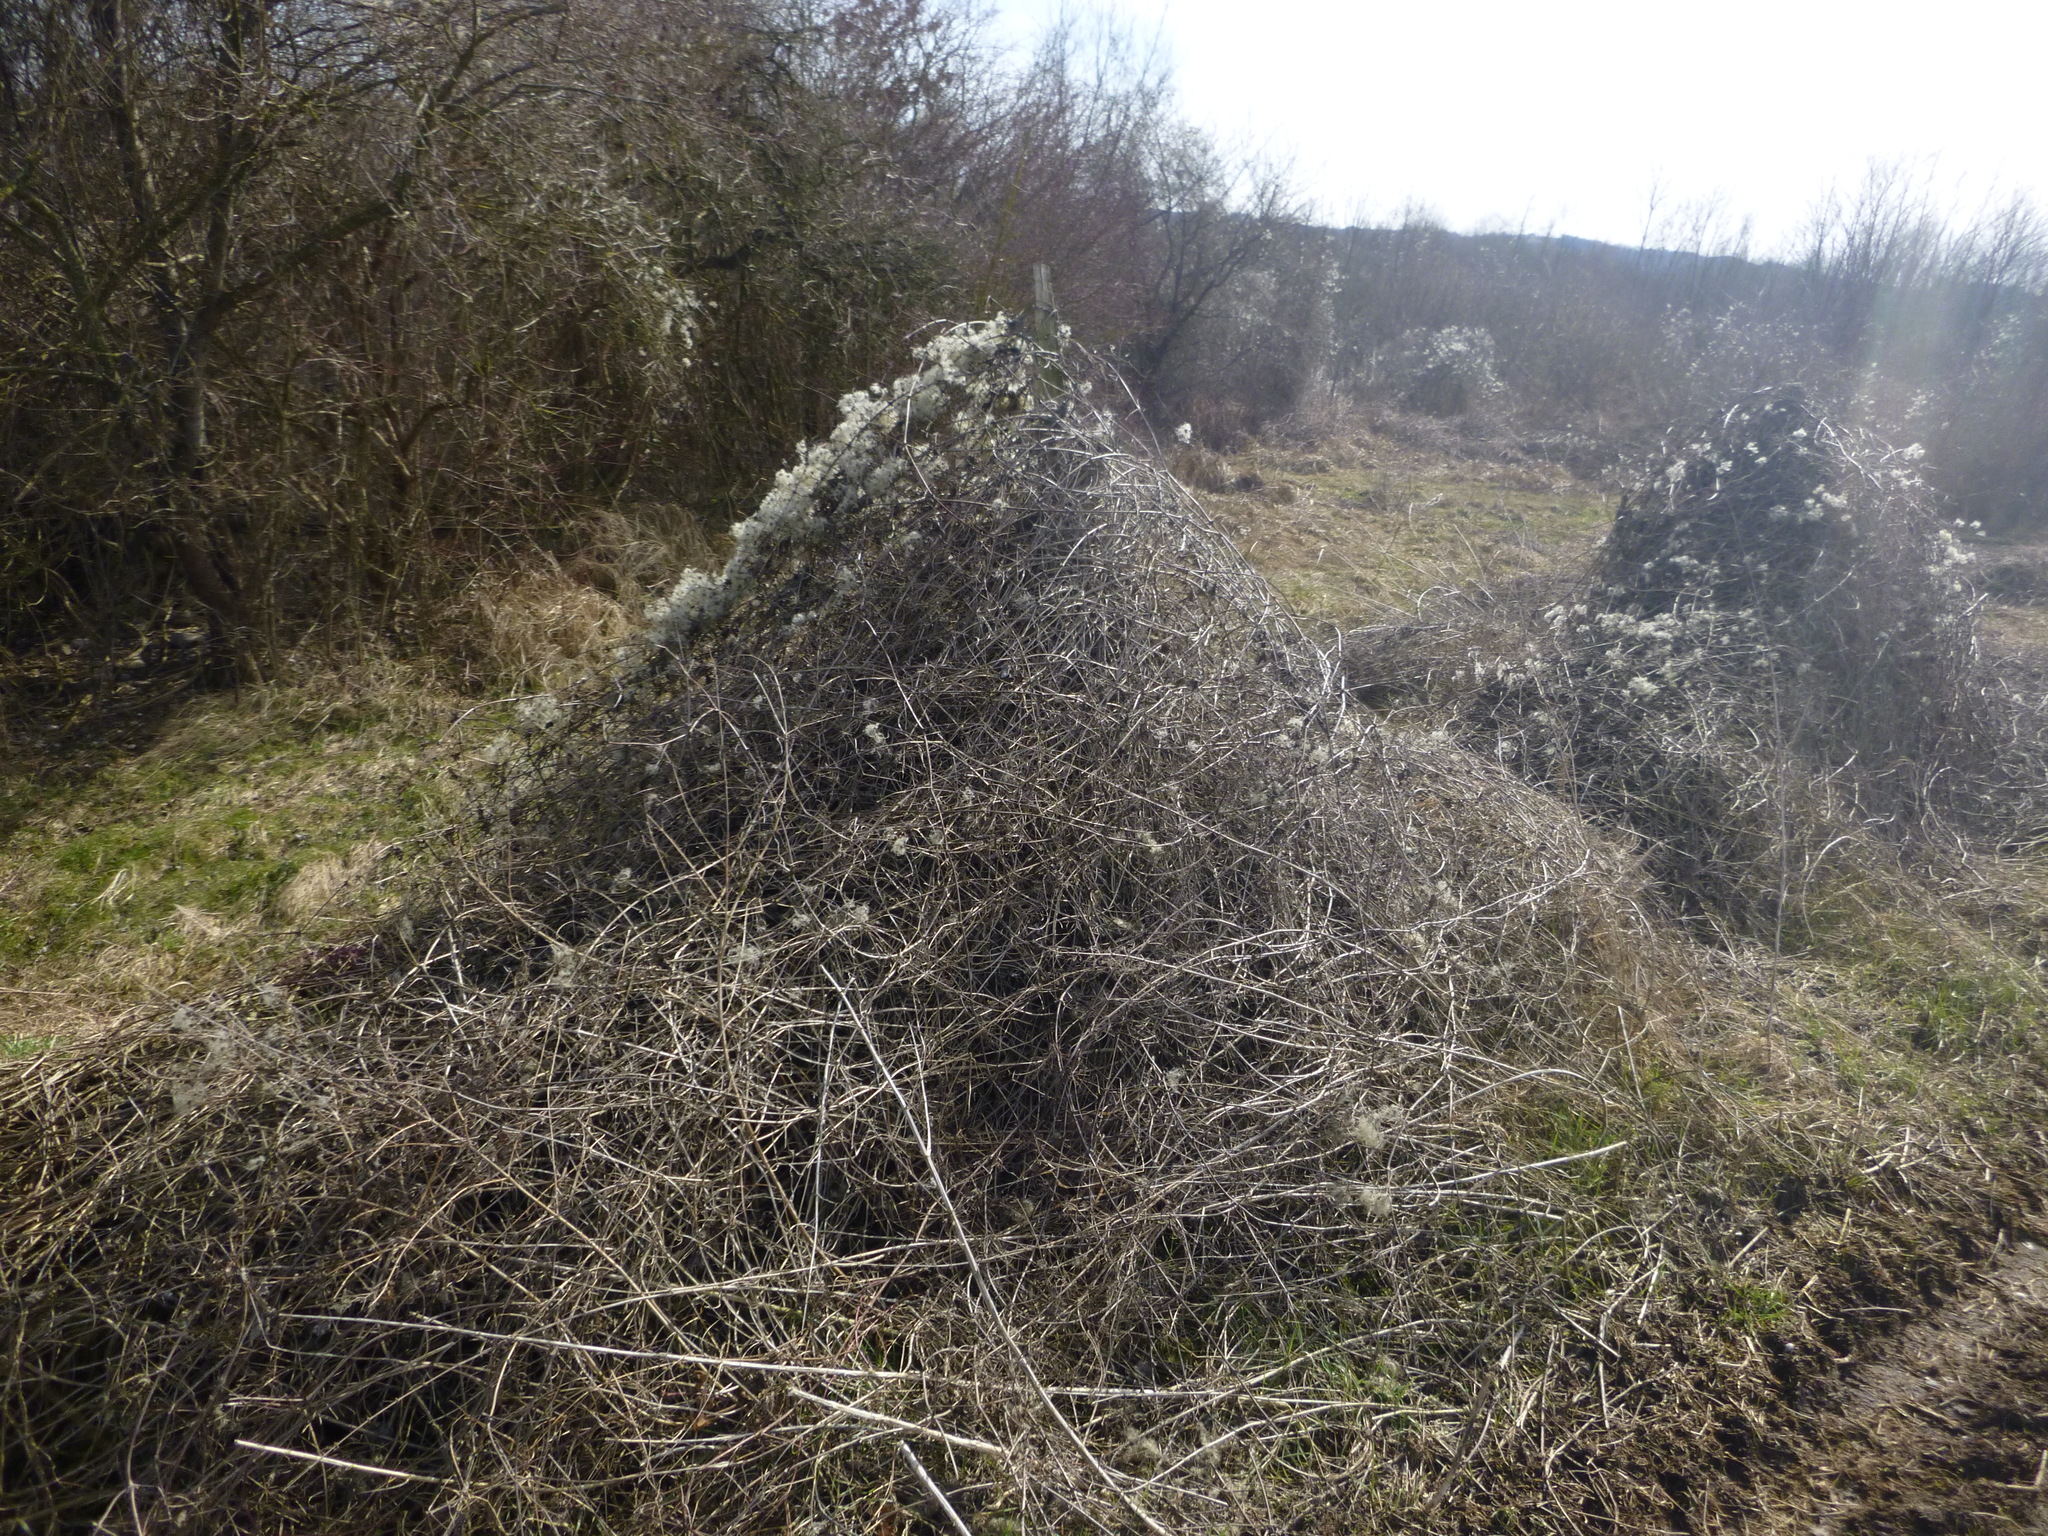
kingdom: Plantae
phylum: Tracheophyta
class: Magnoliopsida
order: Ranunculales
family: Ranunculaceae
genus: Clematis
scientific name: Clematis vitalba
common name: Evergreen clematis
